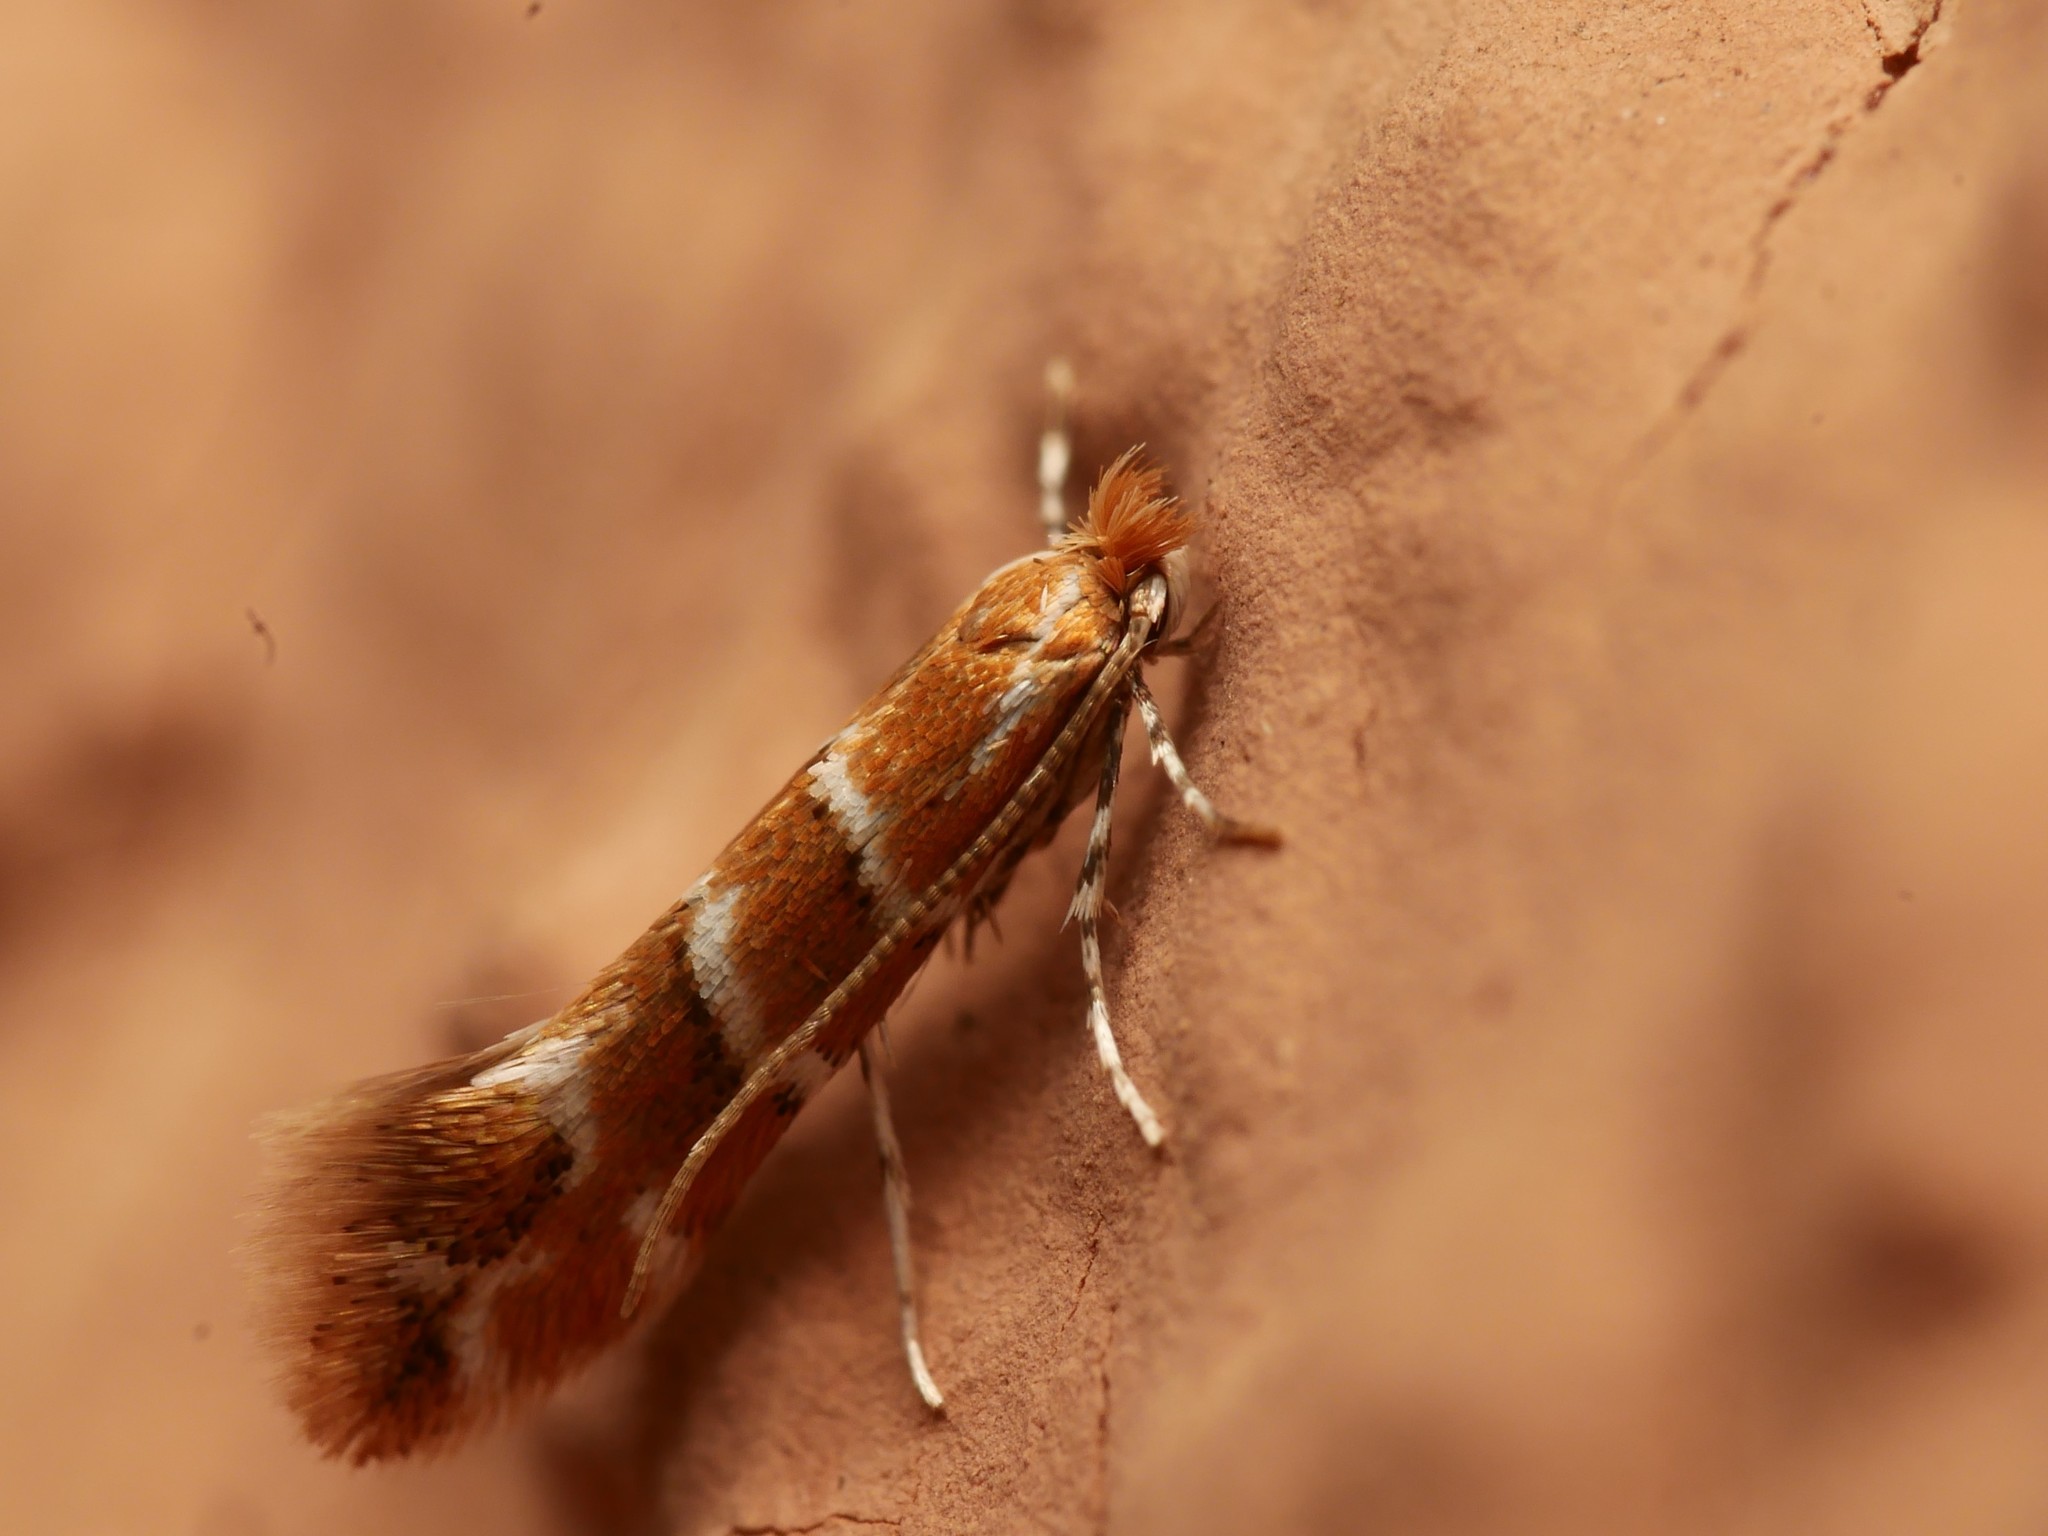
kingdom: Animalia
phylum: Arthropoda
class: Insecta
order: Lepidoptera
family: Gracillariidae
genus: Cameraria
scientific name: Cameraria ohridella
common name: Horse-chestnut leaf-miner
